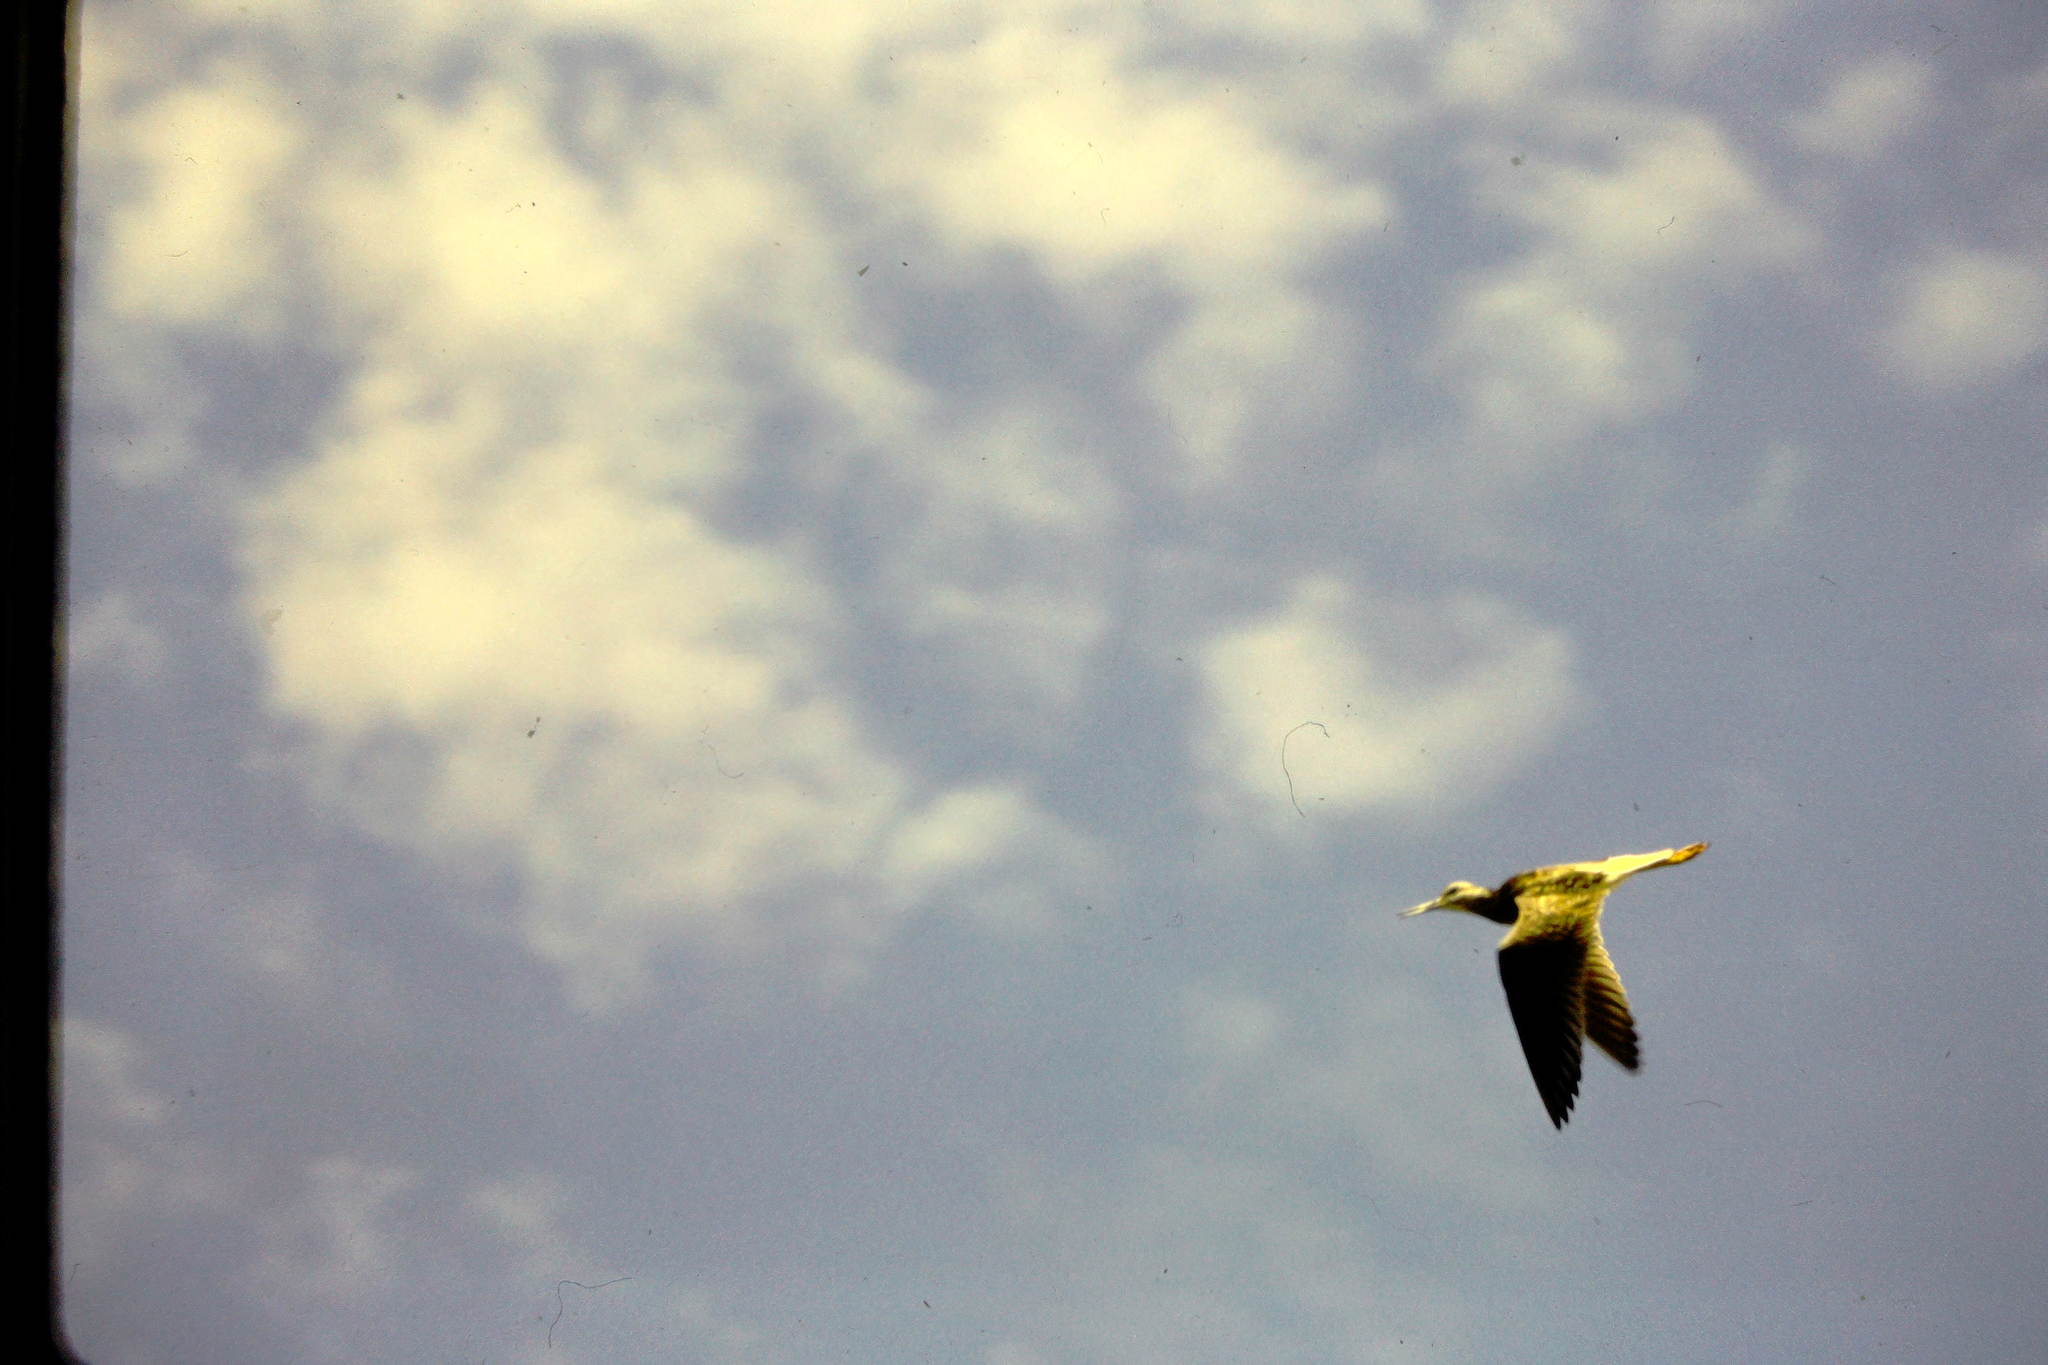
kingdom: Animalia
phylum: Chordata
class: Aves
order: Charadriiformes
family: Scolopacidae
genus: Tringa
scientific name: Tringa melanoleuca
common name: Greater yellowlegs
